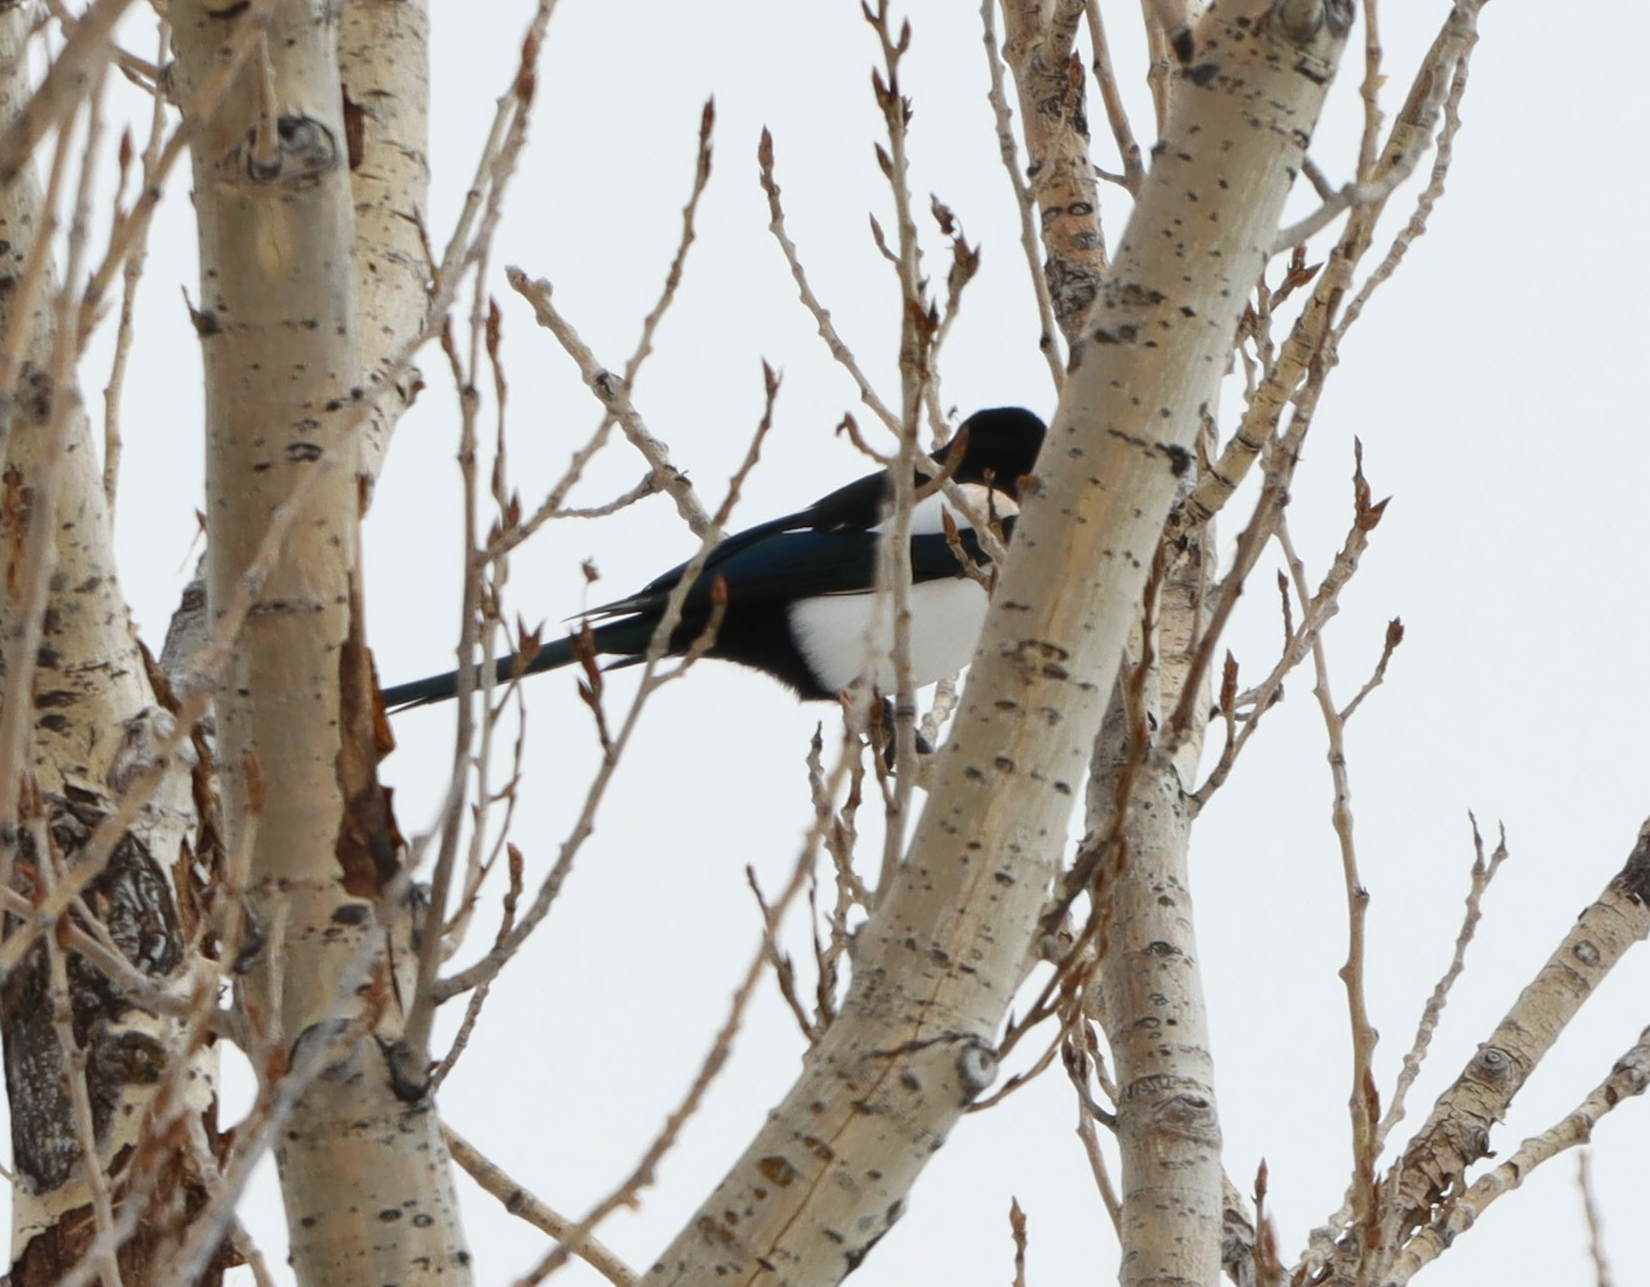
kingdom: Animalia
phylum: Chordata
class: Aves
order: Passeriformes
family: Corvidae
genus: Pica
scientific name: Pica hudsonia
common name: Black-billed magpie
